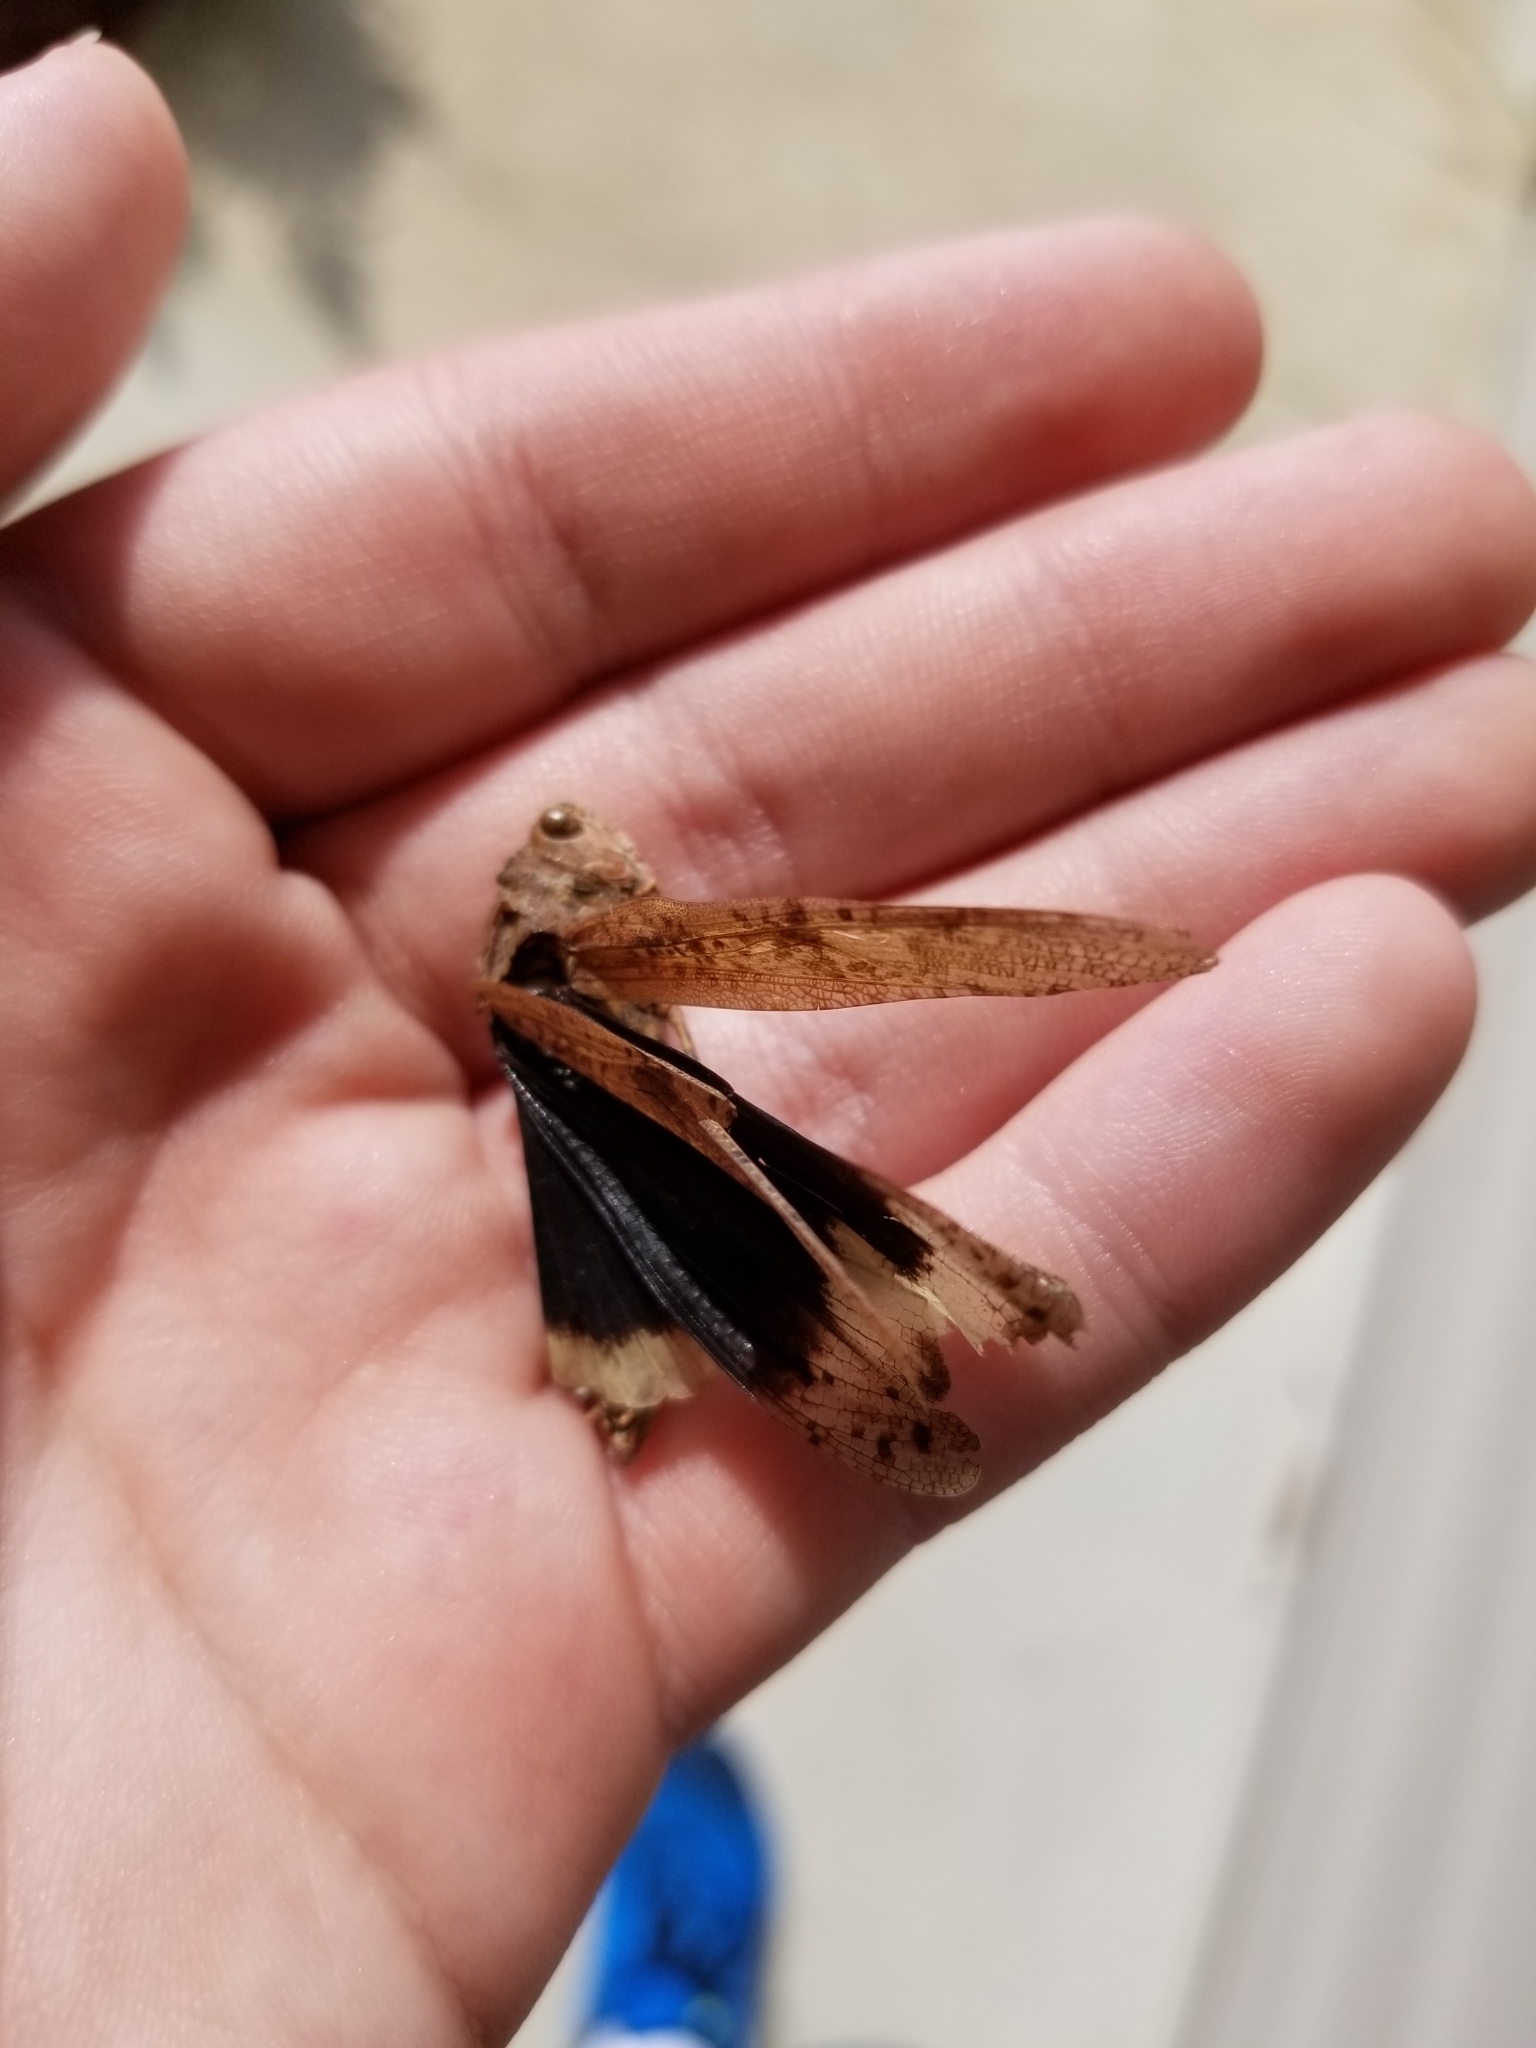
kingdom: Animalia
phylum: Arthropoda
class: Insecta
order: Orthoptera
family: Acrididae
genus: Dissosteira
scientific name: Dissosteira carolina
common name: Carolina grasshopper
